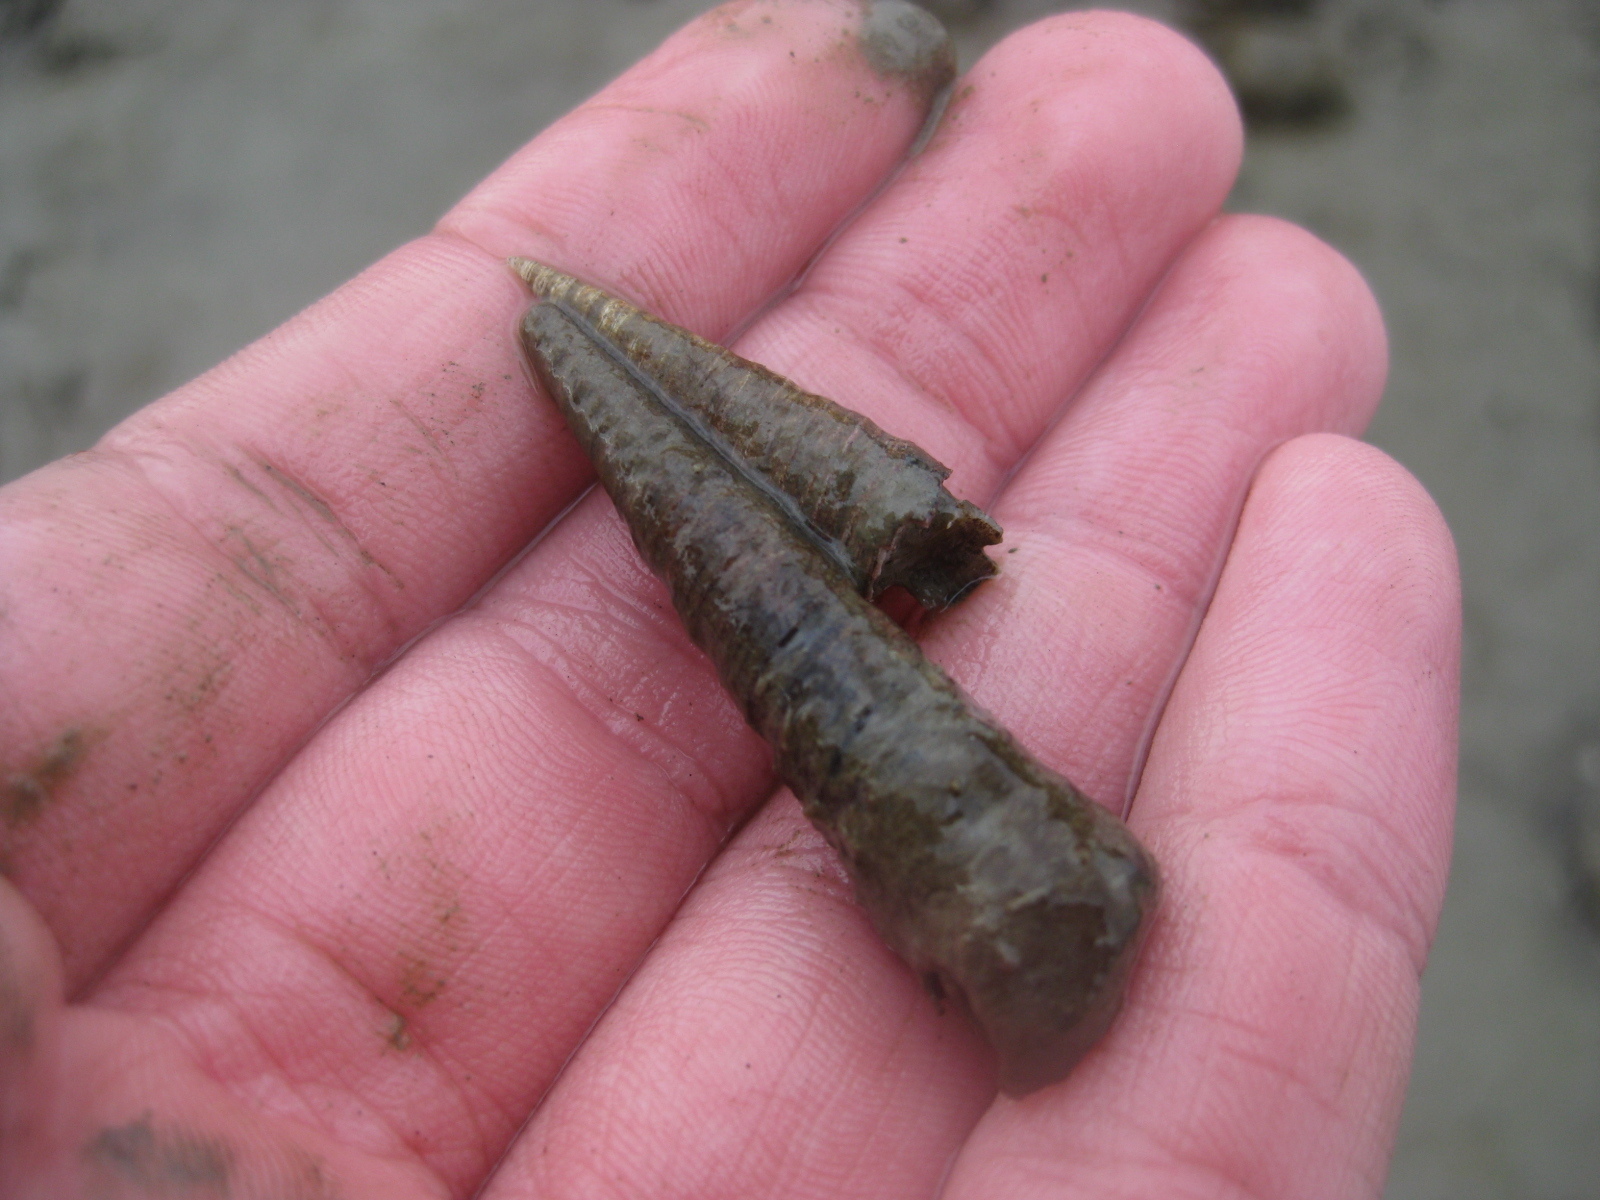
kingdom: Animalia
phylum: Mollusca
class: Gastropoda
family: Turritellidae
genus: Maoricolpus
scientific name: Maoricolpus roseus
